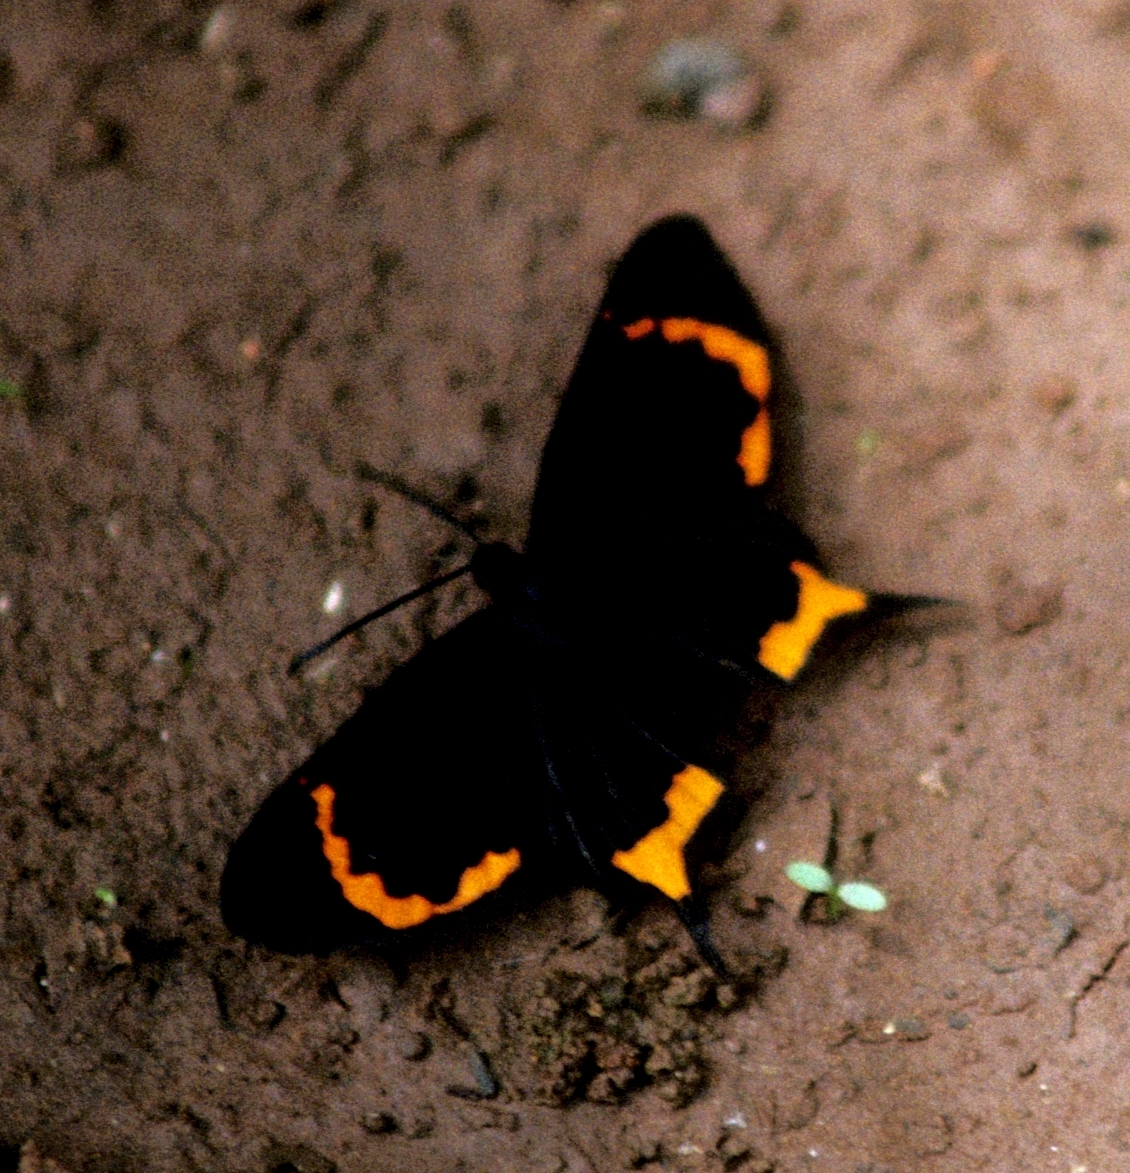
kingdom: Animalia
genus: Barbicornis
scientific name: Barbicornis basilis
